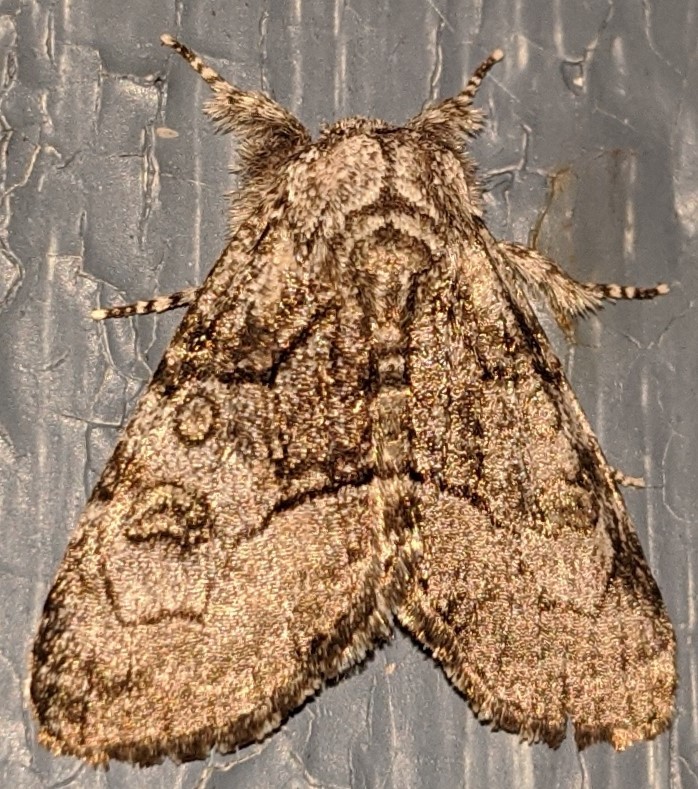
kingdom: Animalia
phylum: Arthropoda
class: Insecta
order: Lepidoptera
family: Noctuidae
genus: Raphia
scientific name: Raphia frater
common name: Brother
